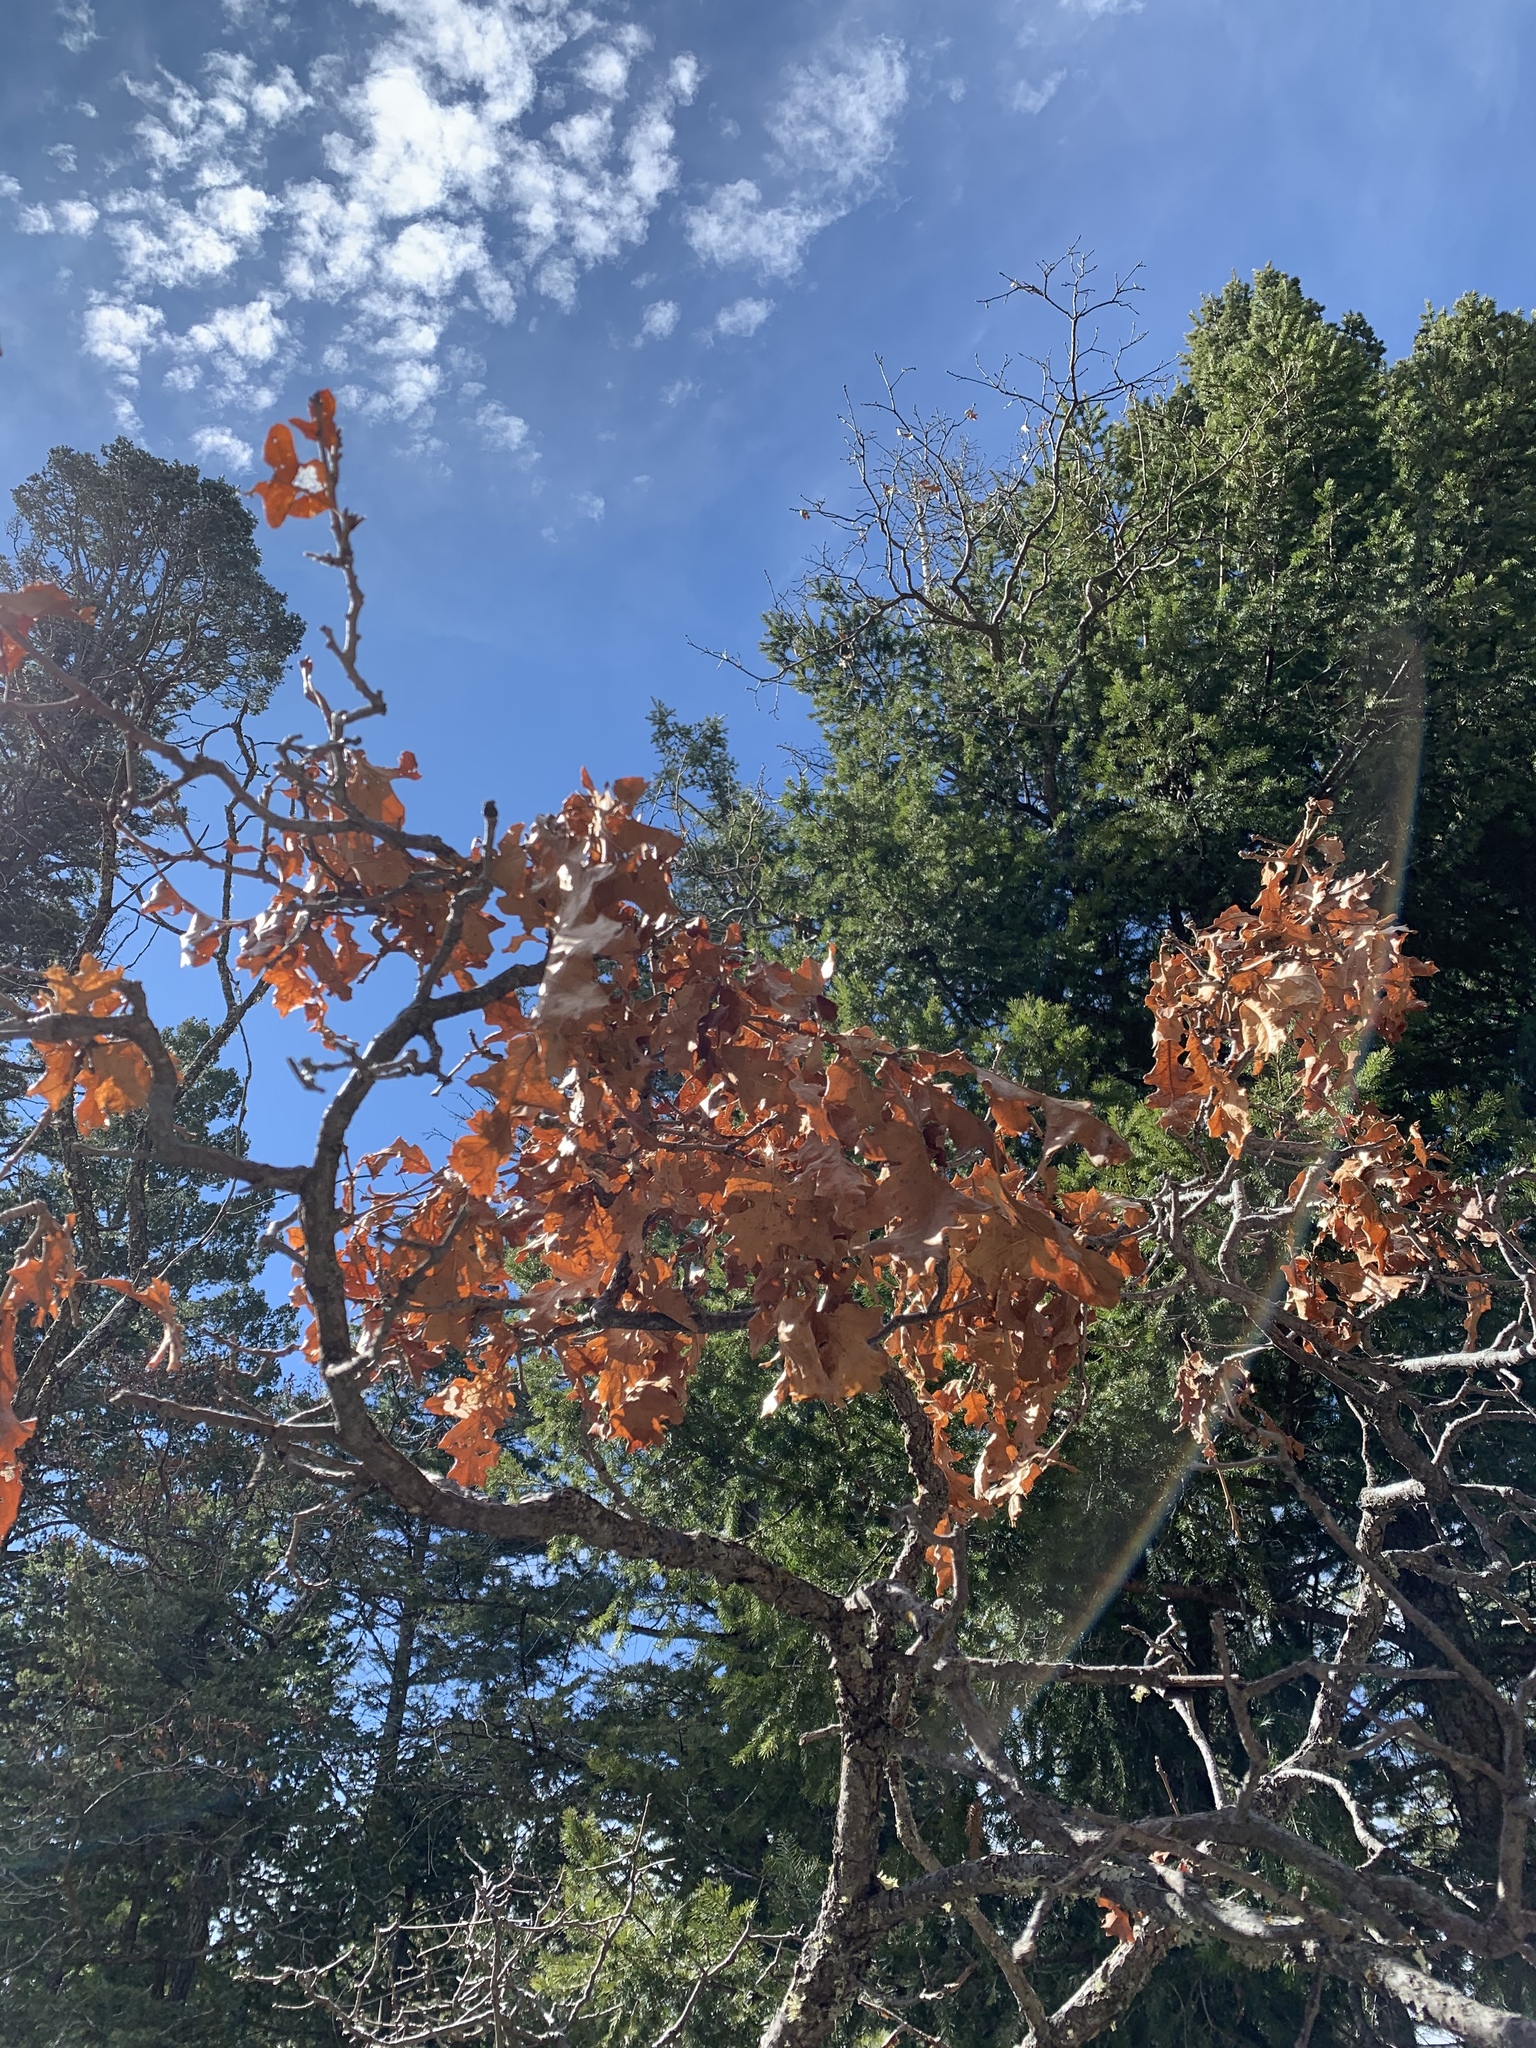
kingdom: Plantae
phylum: Tracheophyta
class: Magnoliopsida
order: Fagales
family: Fagaceae
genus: Quercus
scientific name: Quercus gambelii
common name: Gambel oak
